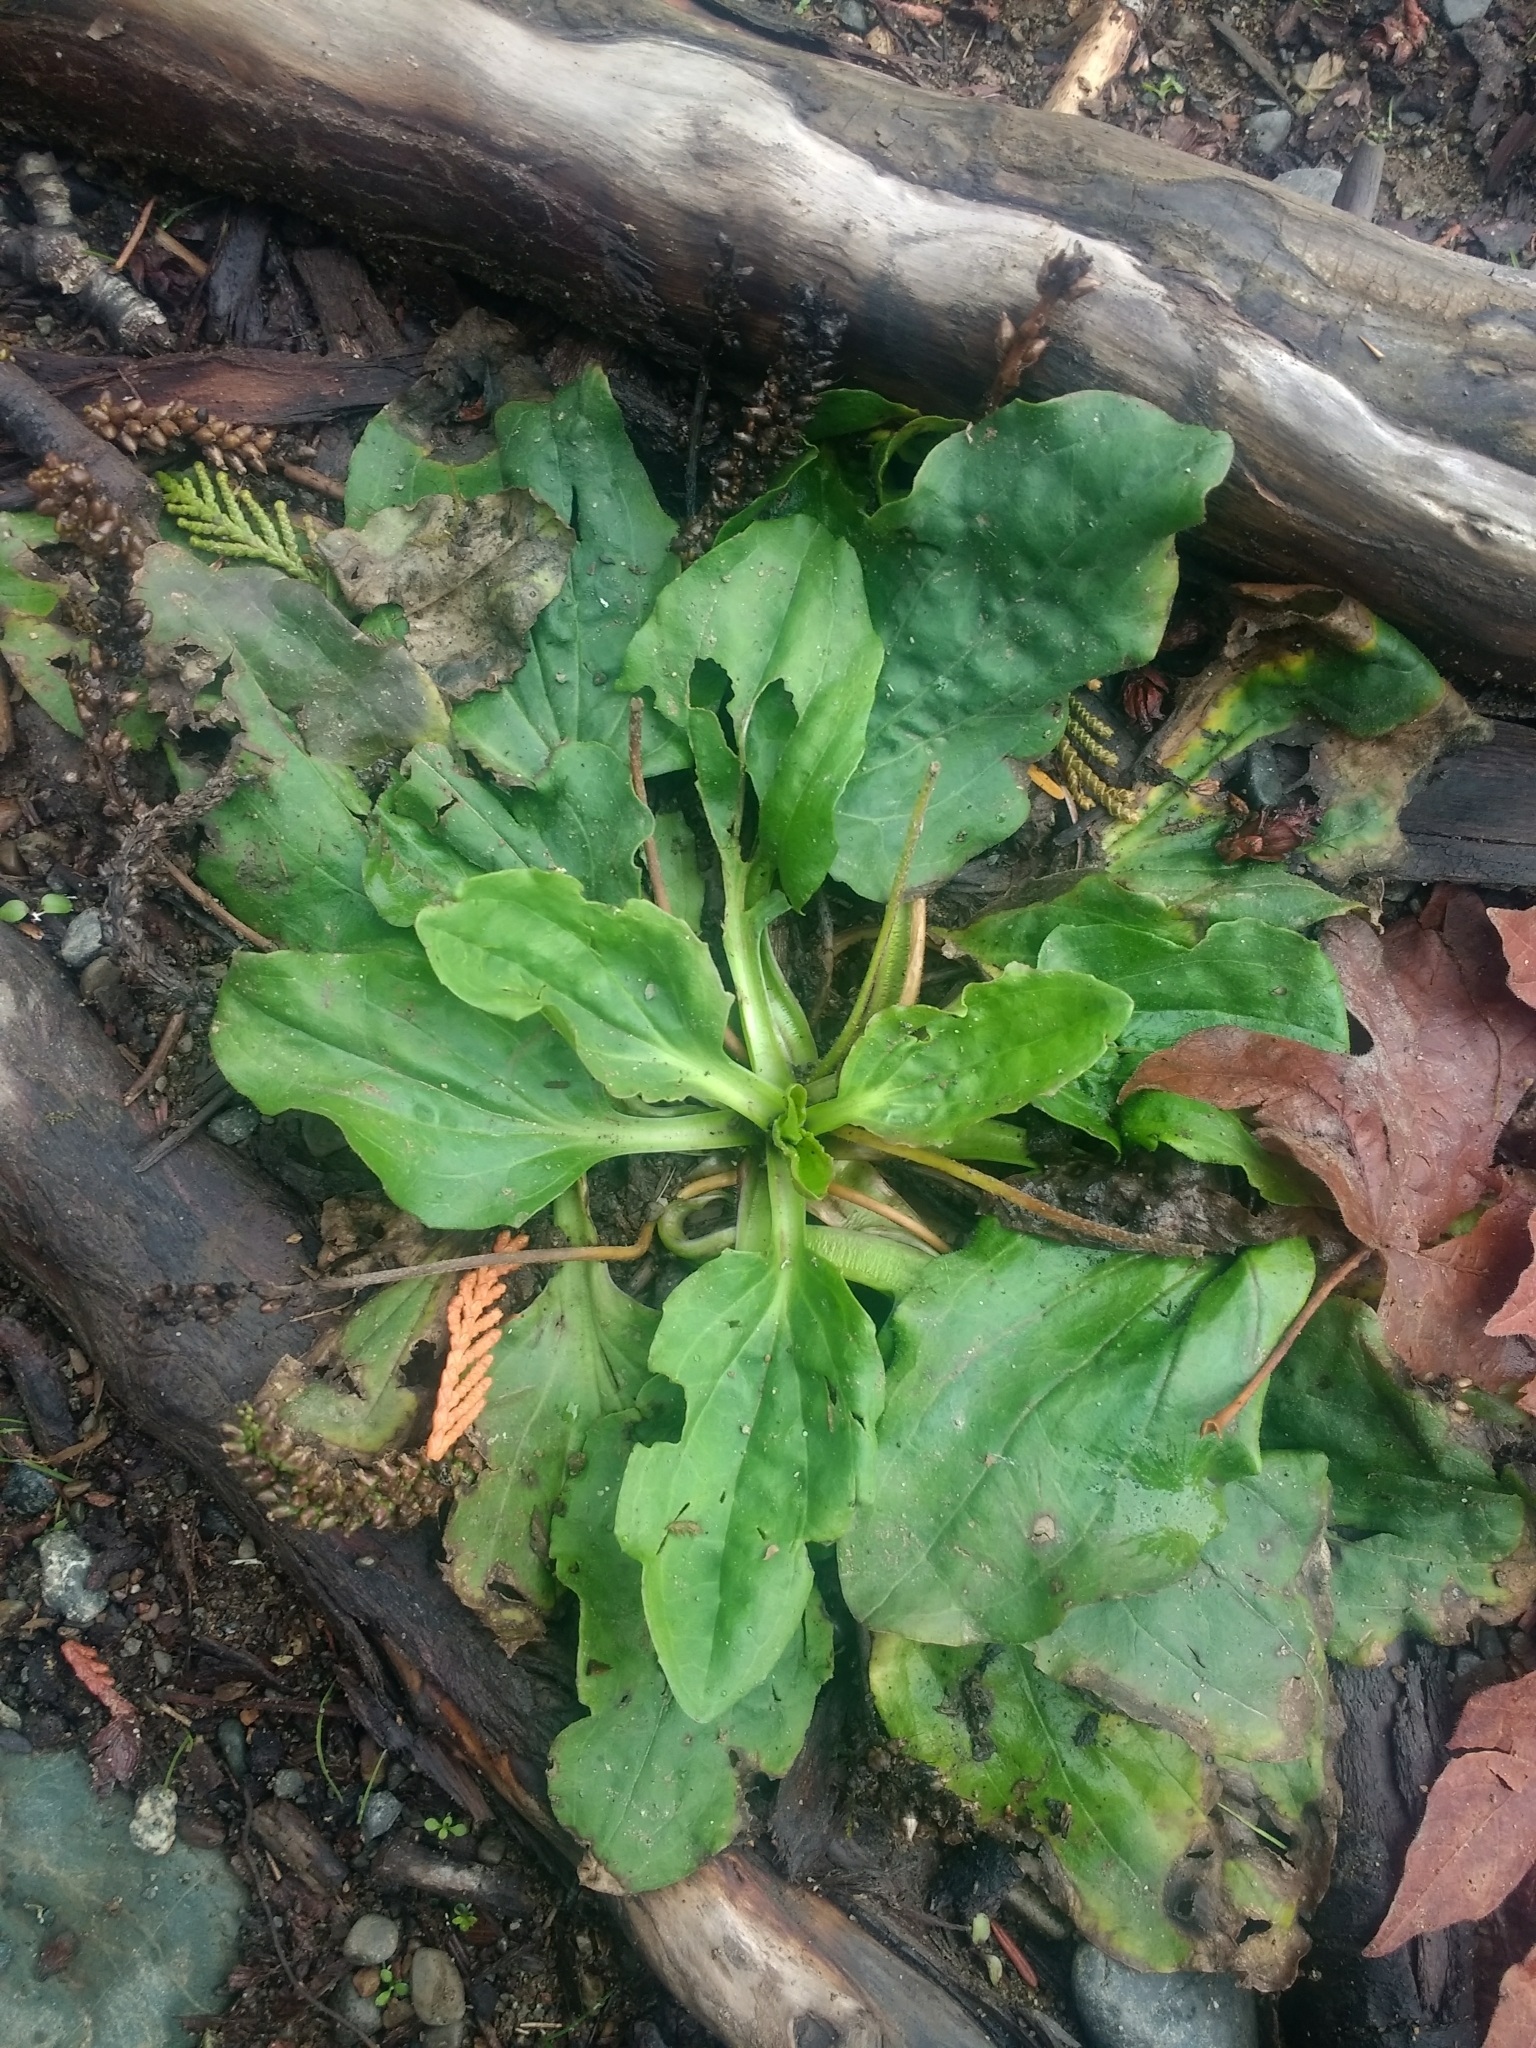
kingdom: Plantae
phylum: Tracheophyta
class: Magnoliopsida
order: Lamiales
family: Plantaginaceae
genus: Plantago
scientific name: Plantago major
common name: Common plantain
